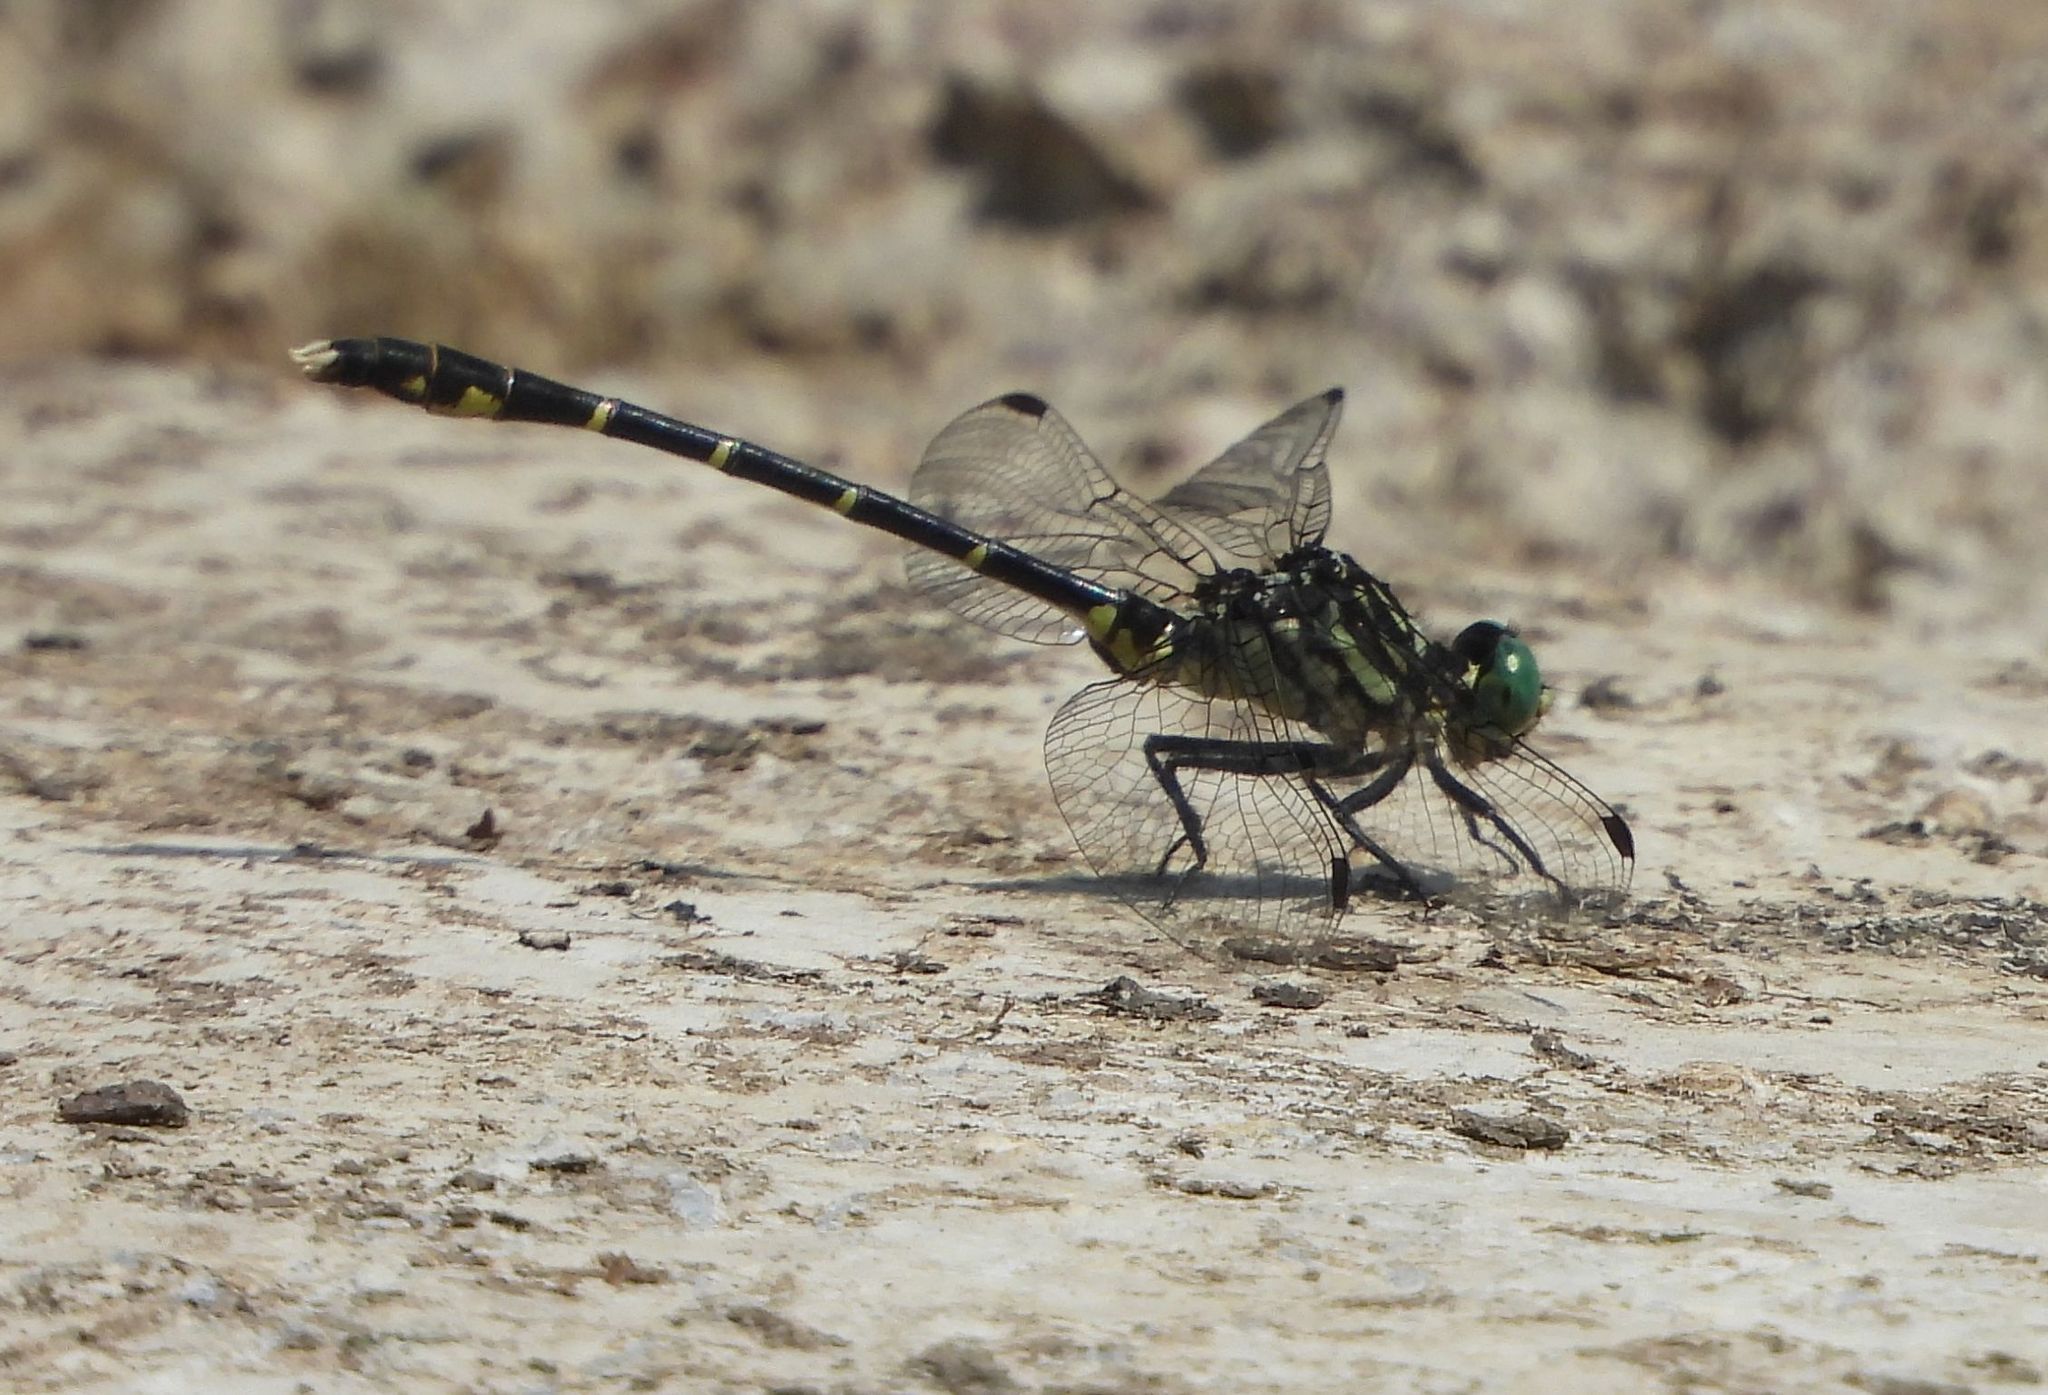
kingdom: Animalia
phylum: Arthropoda
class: Insecta
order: Odonata
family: Gomphidae
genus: Stylogomphus
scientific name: Stylogomphus albistylus
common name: Eastern least clubtail
